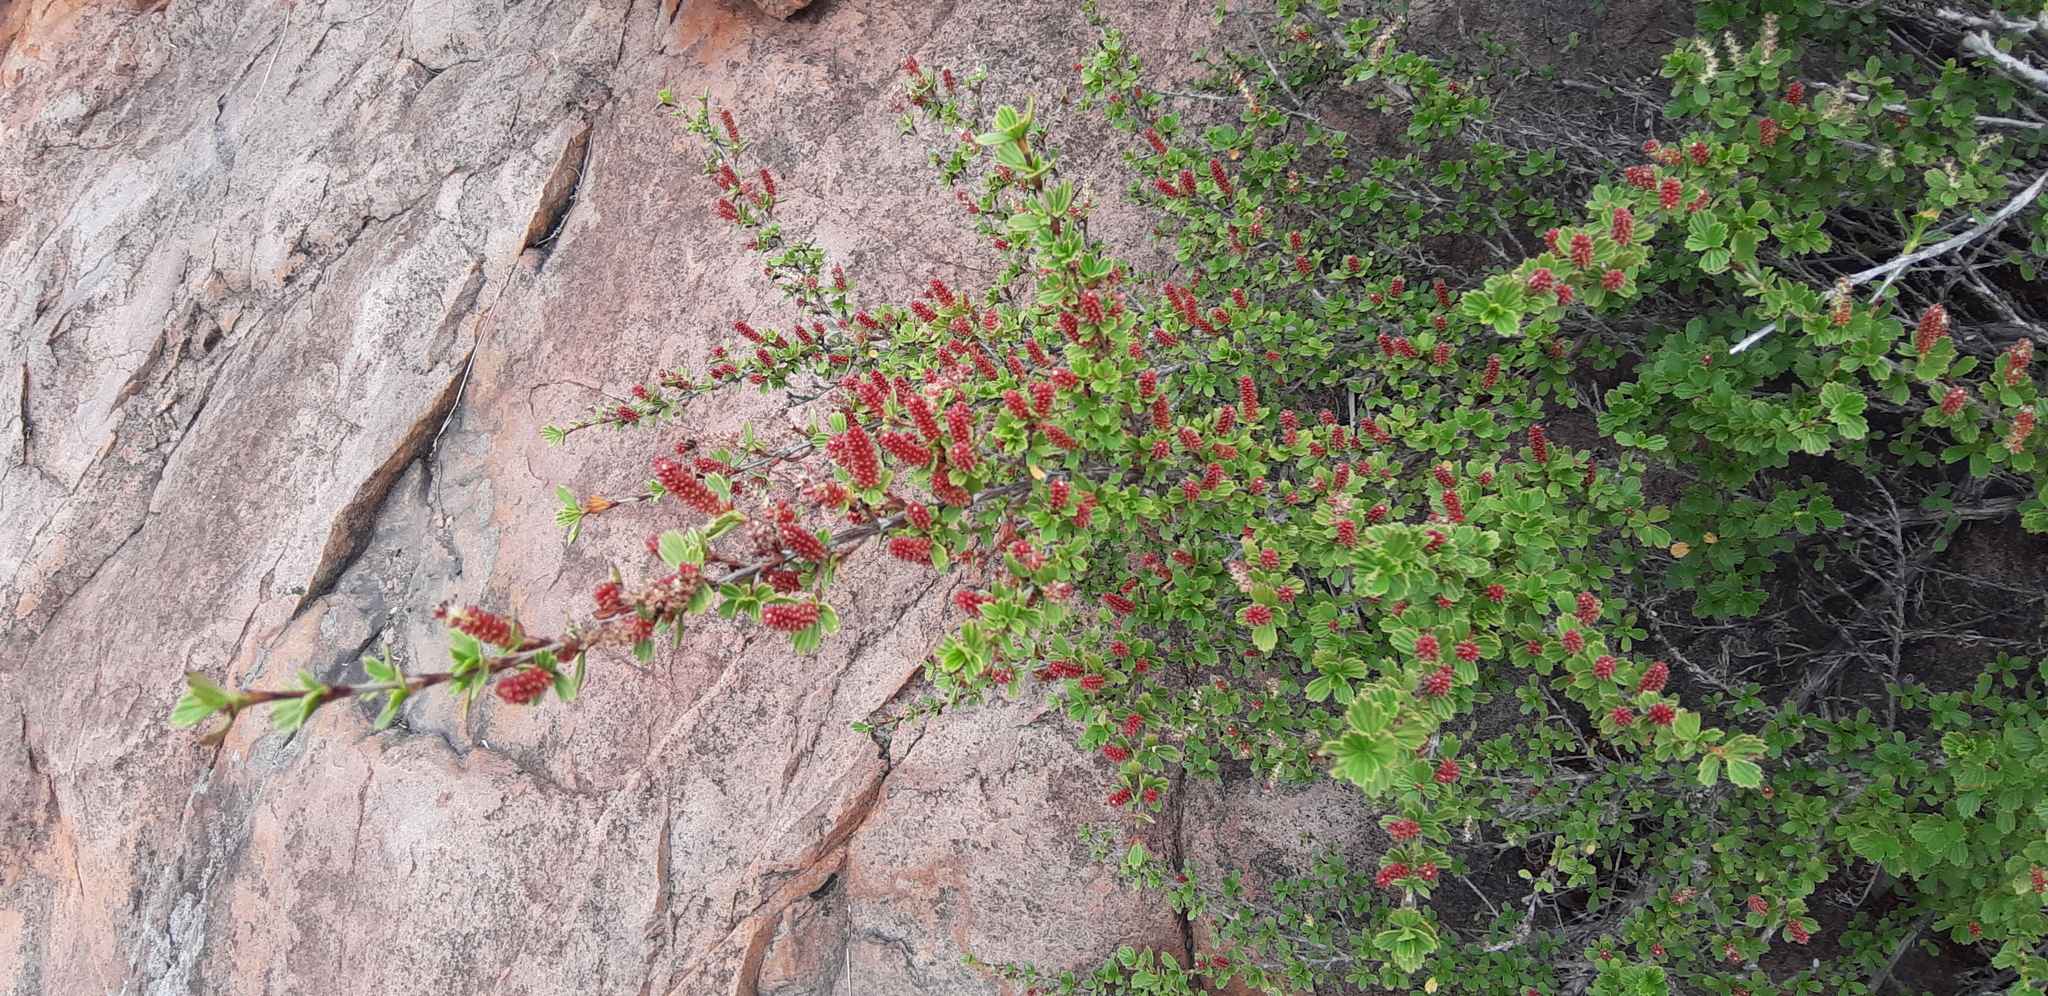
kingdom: Plantae
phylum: Tracheophyta
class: Magnoliopsida
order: Gunnerales
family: Myrothamnaceae
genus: Myrothamnus
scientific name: Myrothamnus flabellifolius
